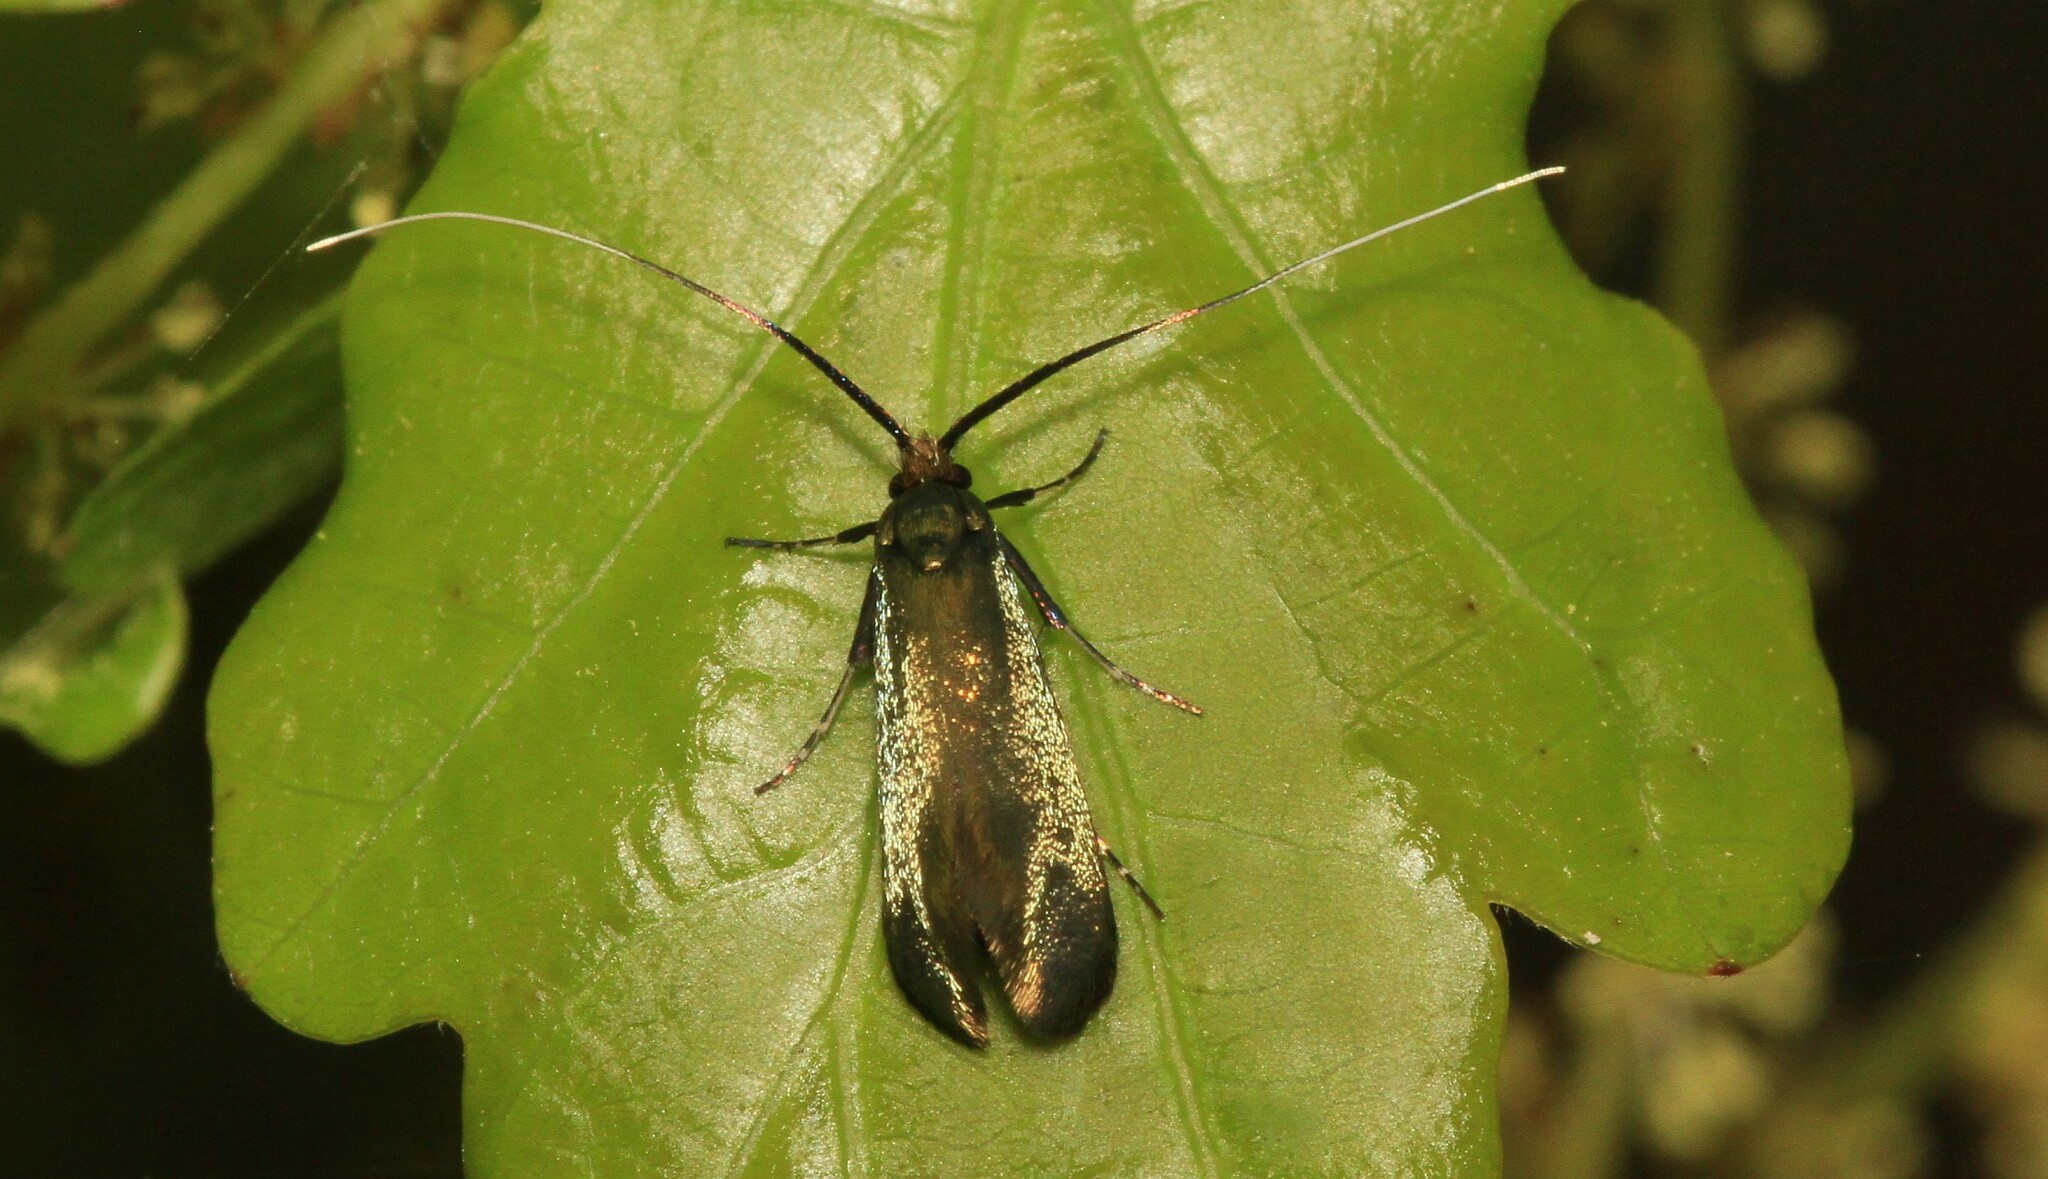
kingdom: Animalia
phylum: Arthropoda
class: Insecta
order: Lepidoptera
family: Adelidae
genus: Adela
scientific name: Adela viridella
